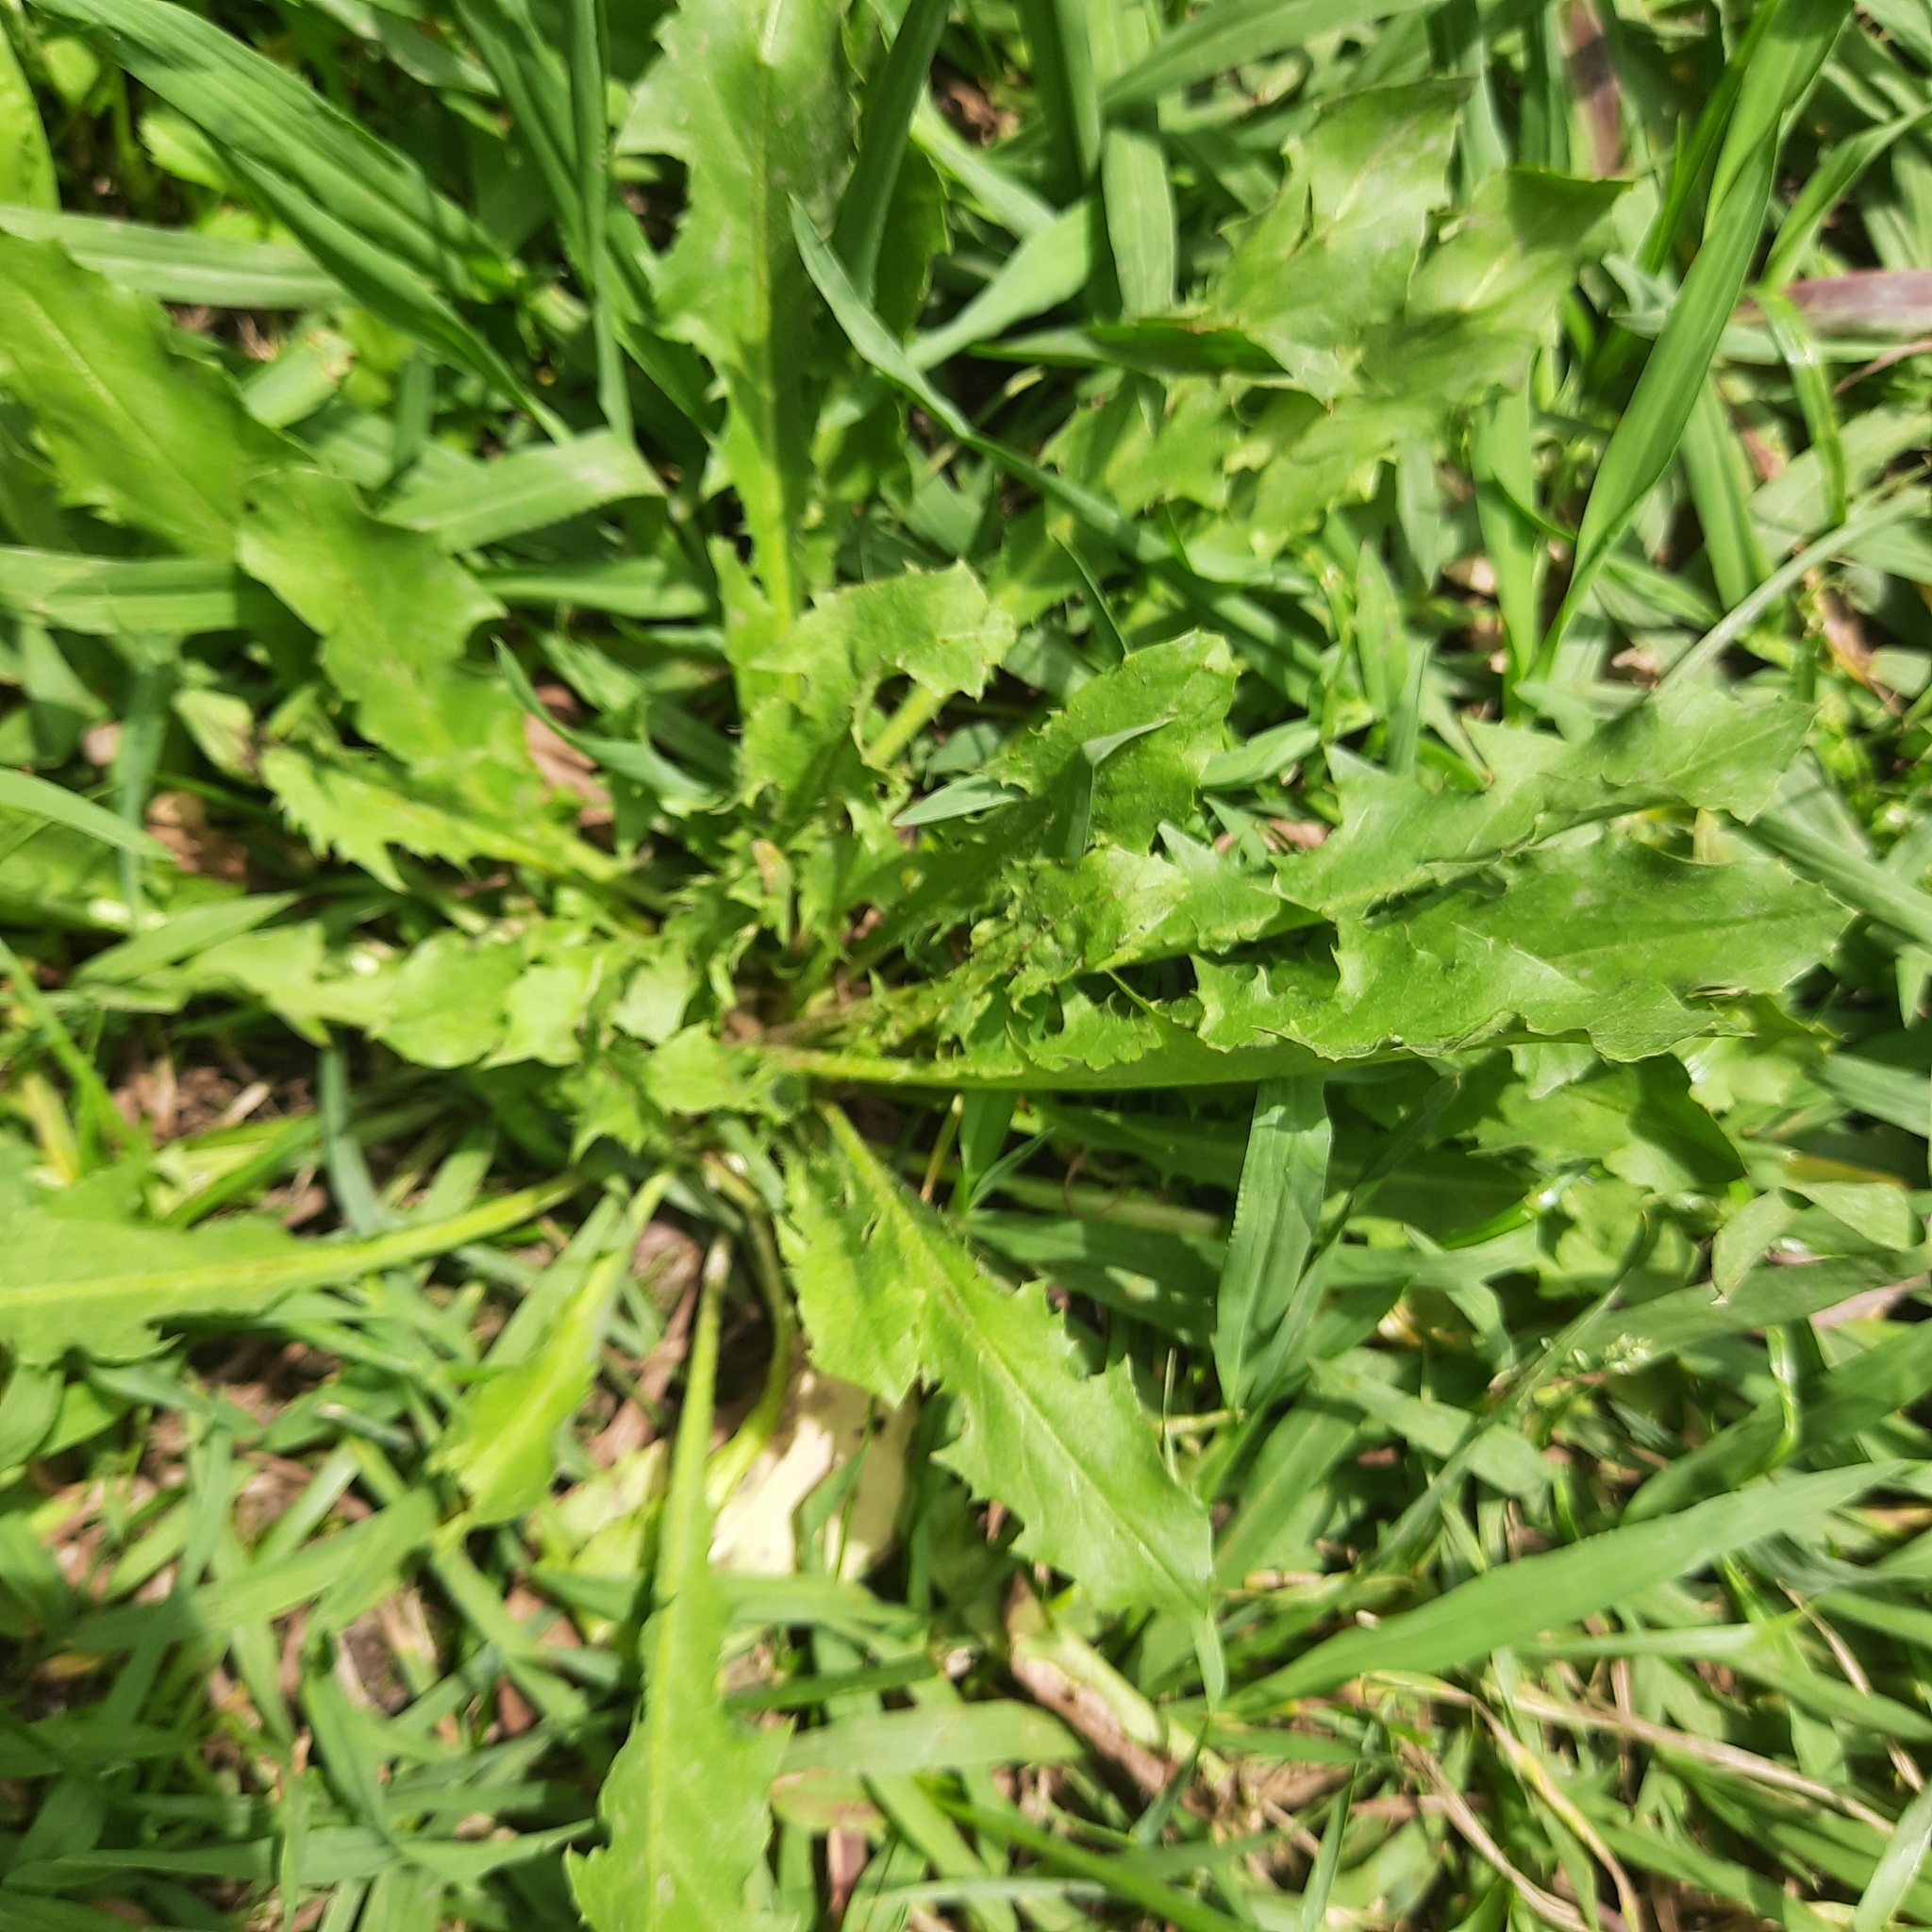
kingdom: Plantae
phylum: Tracheophyta
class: Magnoliopsida
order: Asterales
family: Asteraceae
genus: Taraxacum
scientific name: Taraxacum officinale
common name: Common dandelion
